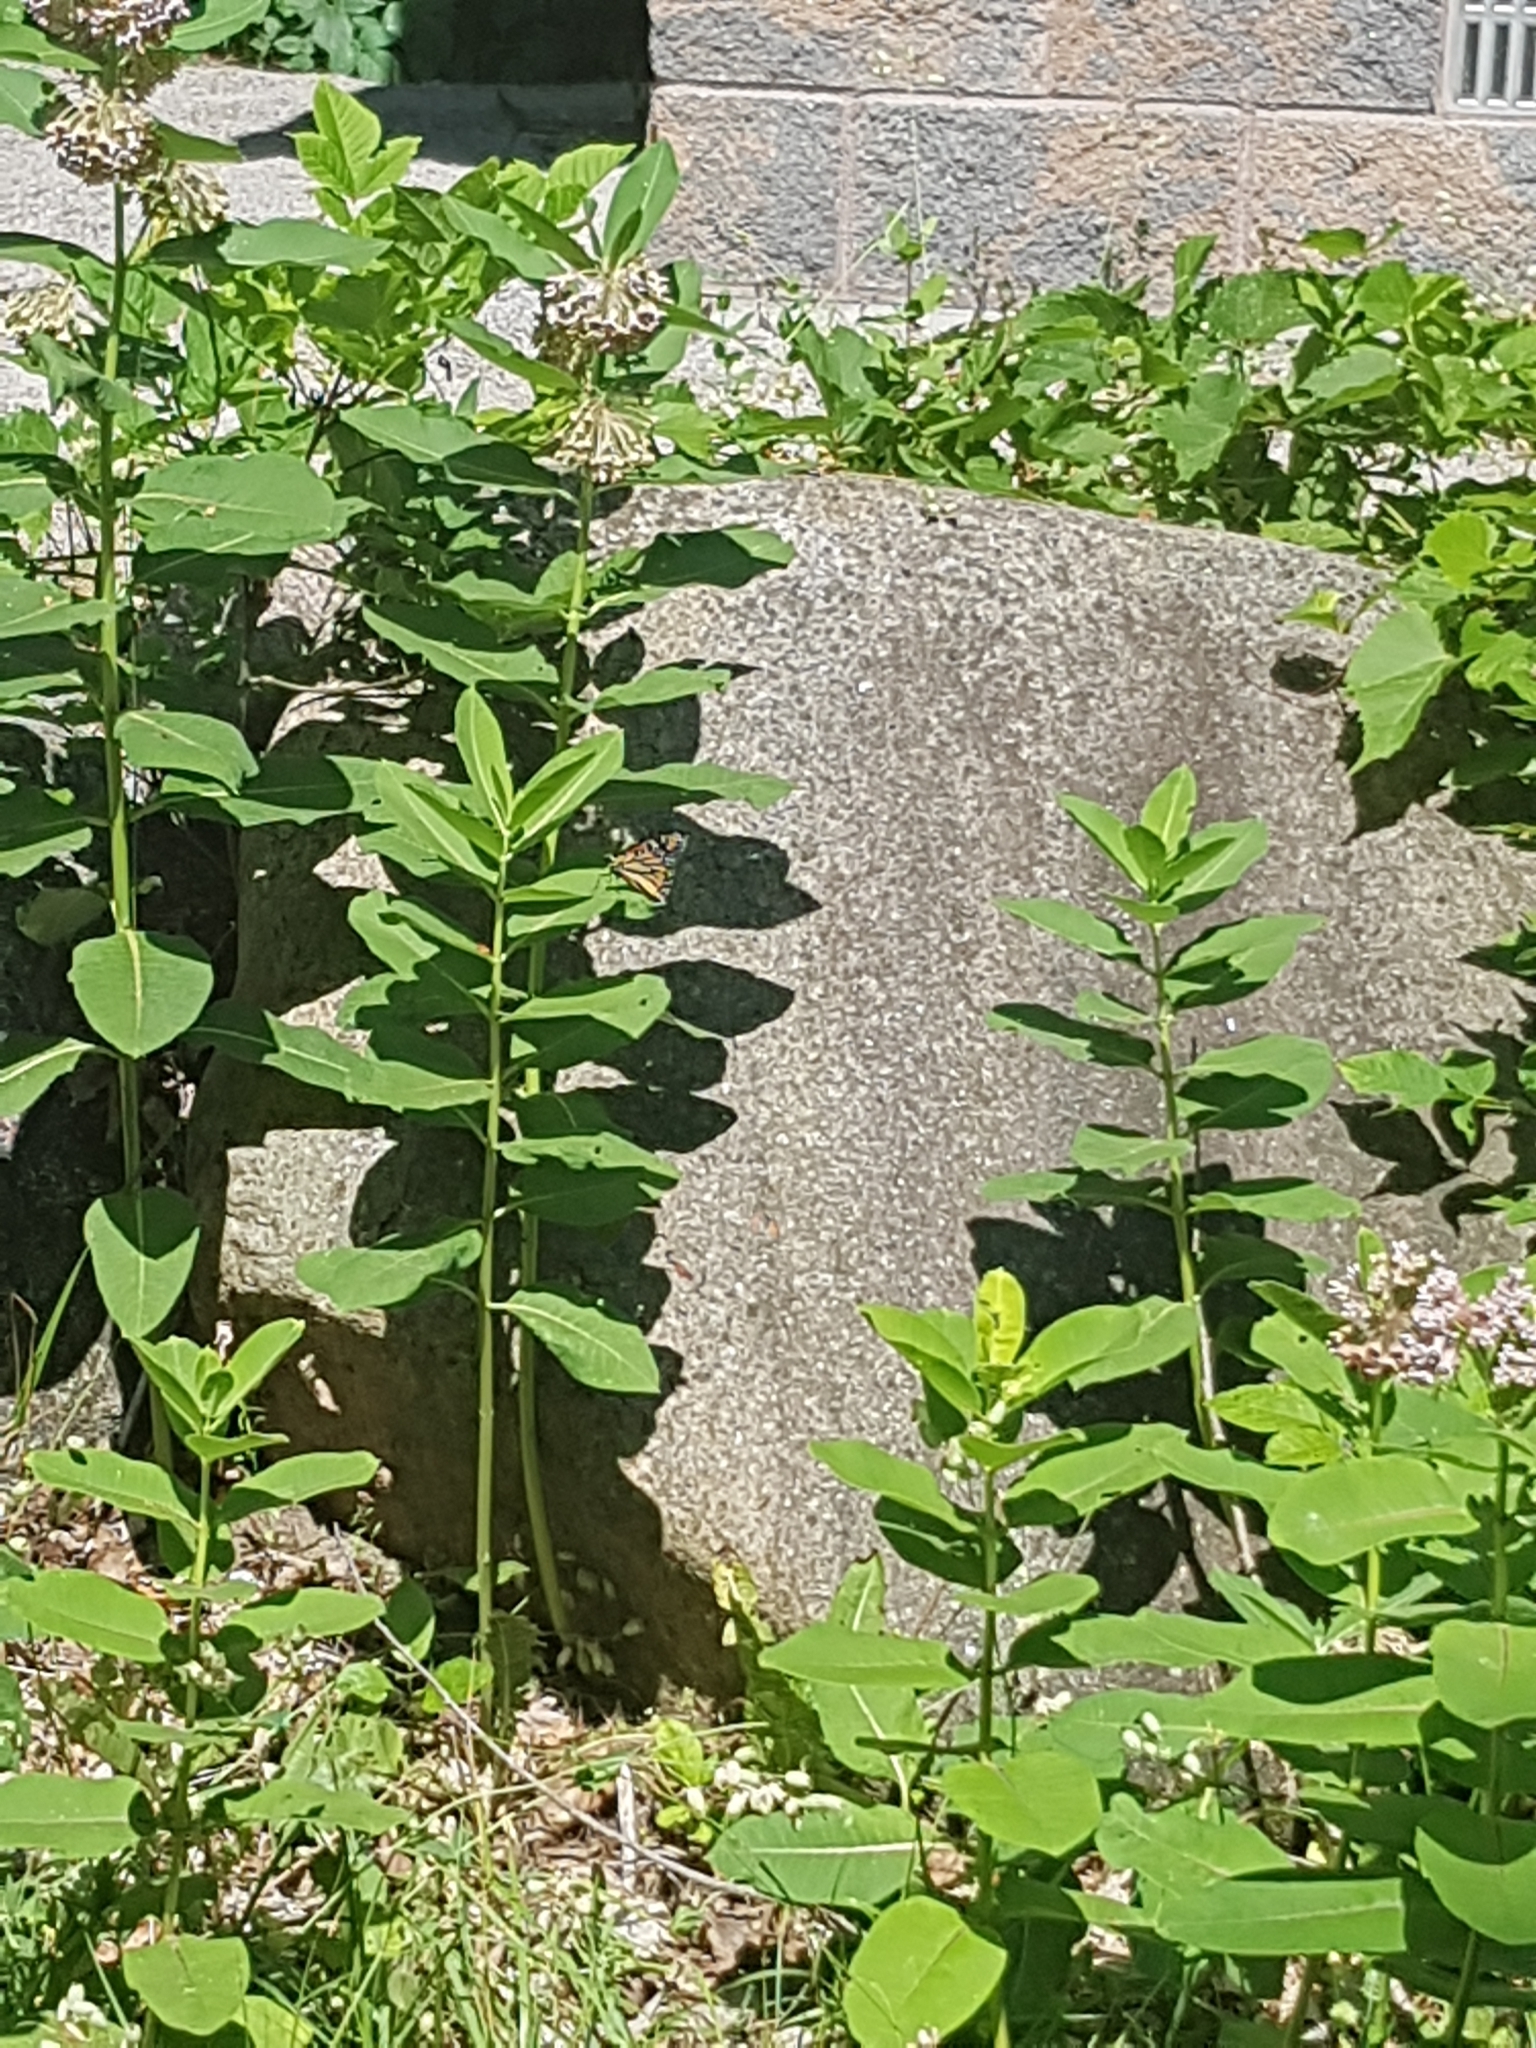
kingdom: Animalia
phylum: Arthropoda
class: Insecta
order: Lepidoptera
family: Nymphalidae
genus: Danaus
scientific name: Danaus plexippus
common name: Monarch
